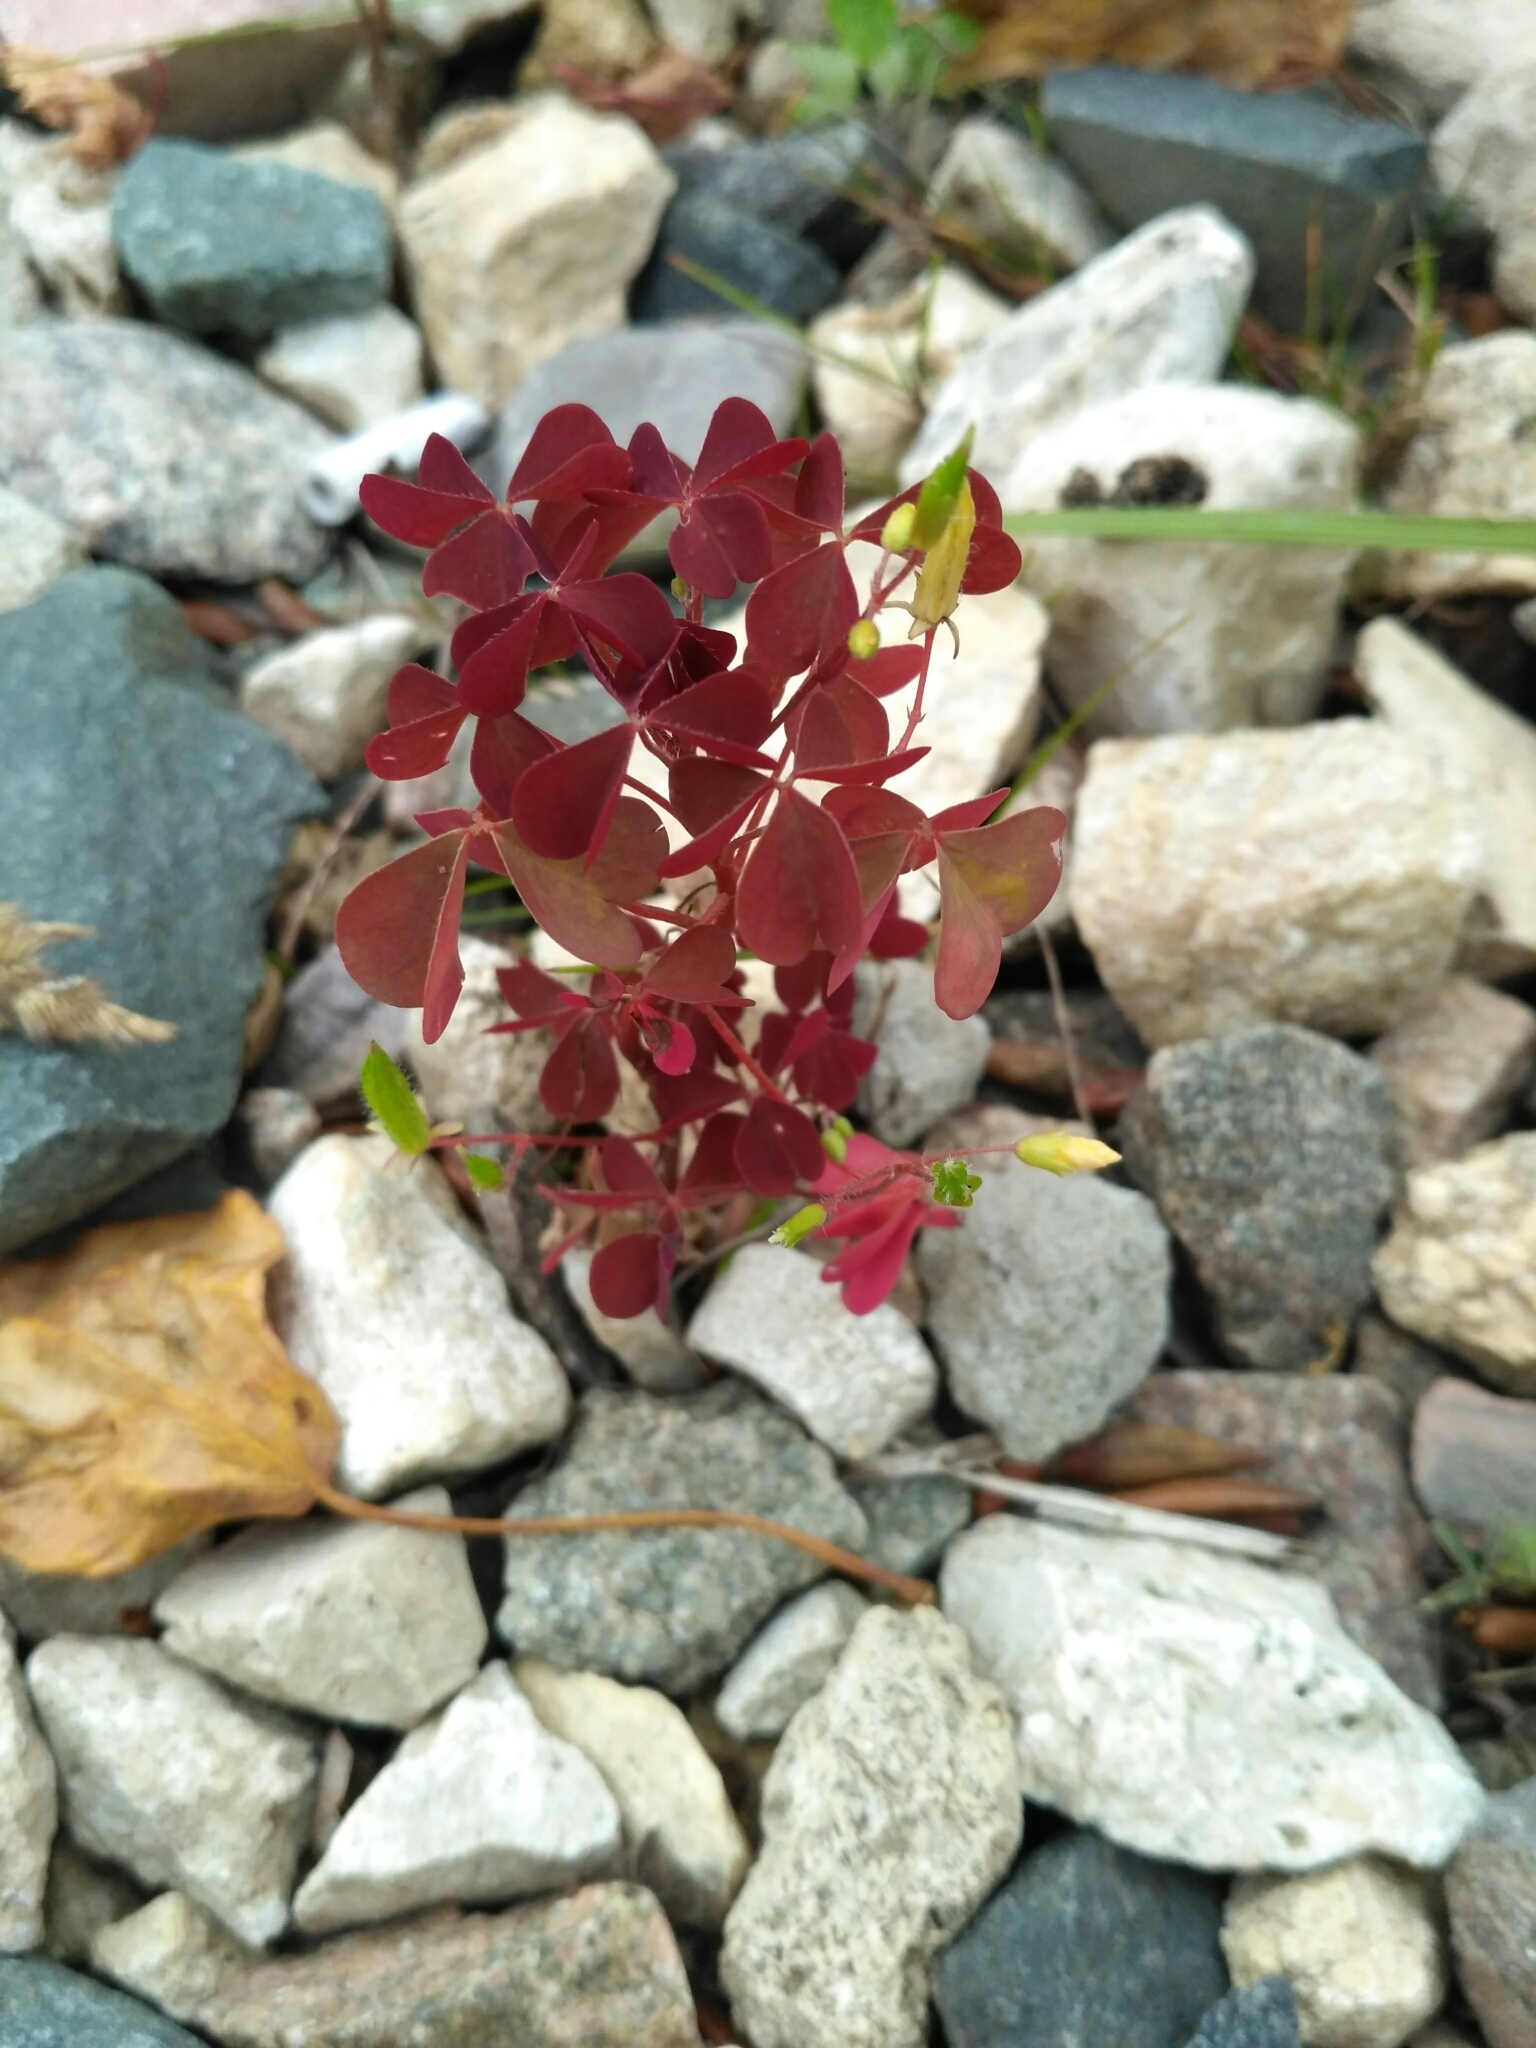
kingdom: Plantae
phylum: Tracheophyta
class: Magnoliopsida
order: Oxalidales
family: Oxalidaceae
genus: Oxalis
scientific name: Oxalis stricta
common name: Upright yellow-sorrel
